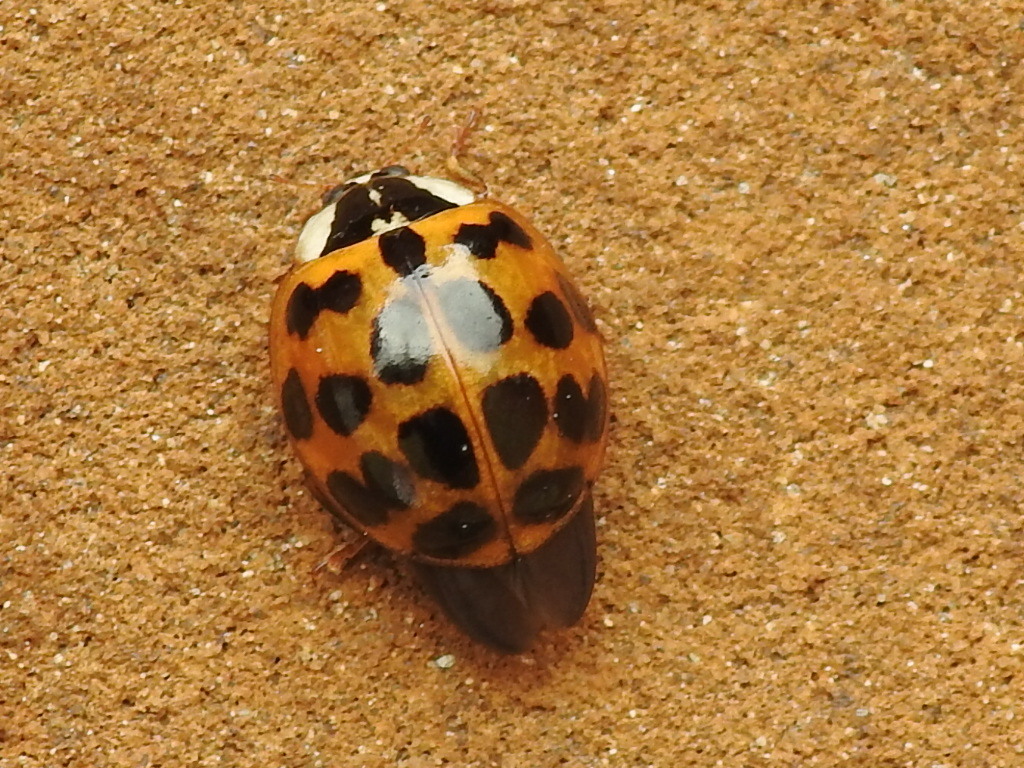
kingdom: Animalia
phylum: Arthropoda
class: Insecta
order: Coleoptera
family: Coccinellidae
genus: Harmonia
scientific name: Harmonia axyridis
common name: Harlequin ladybird
